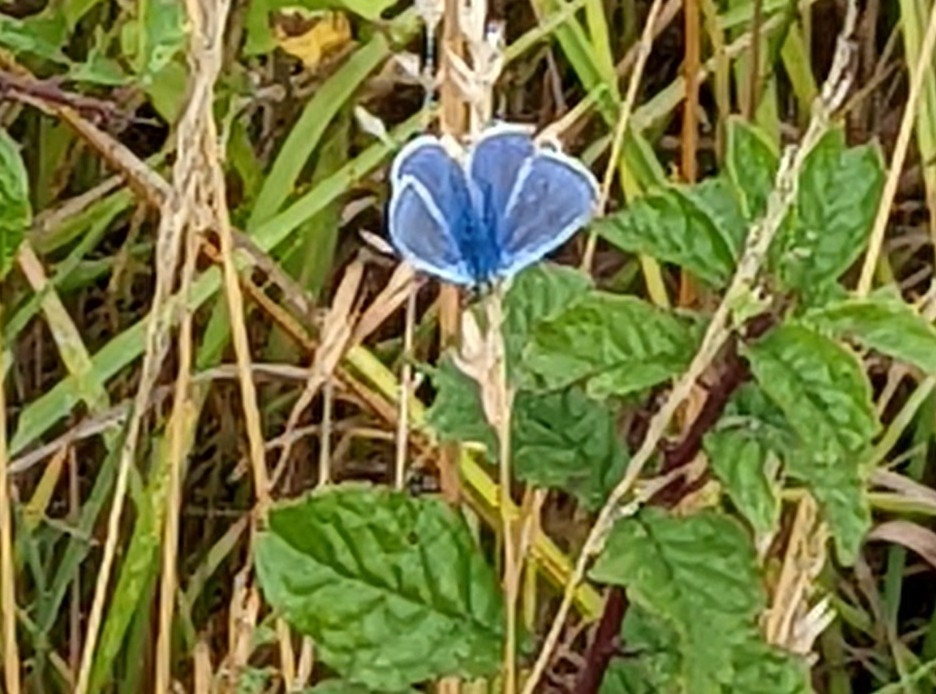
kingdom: Animalia
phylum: Arthropoda
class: Insecta
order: Lepidoptera
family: Lycaenidae
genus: Polyommatus
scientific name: Polyommatus icarus
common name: Common blue
